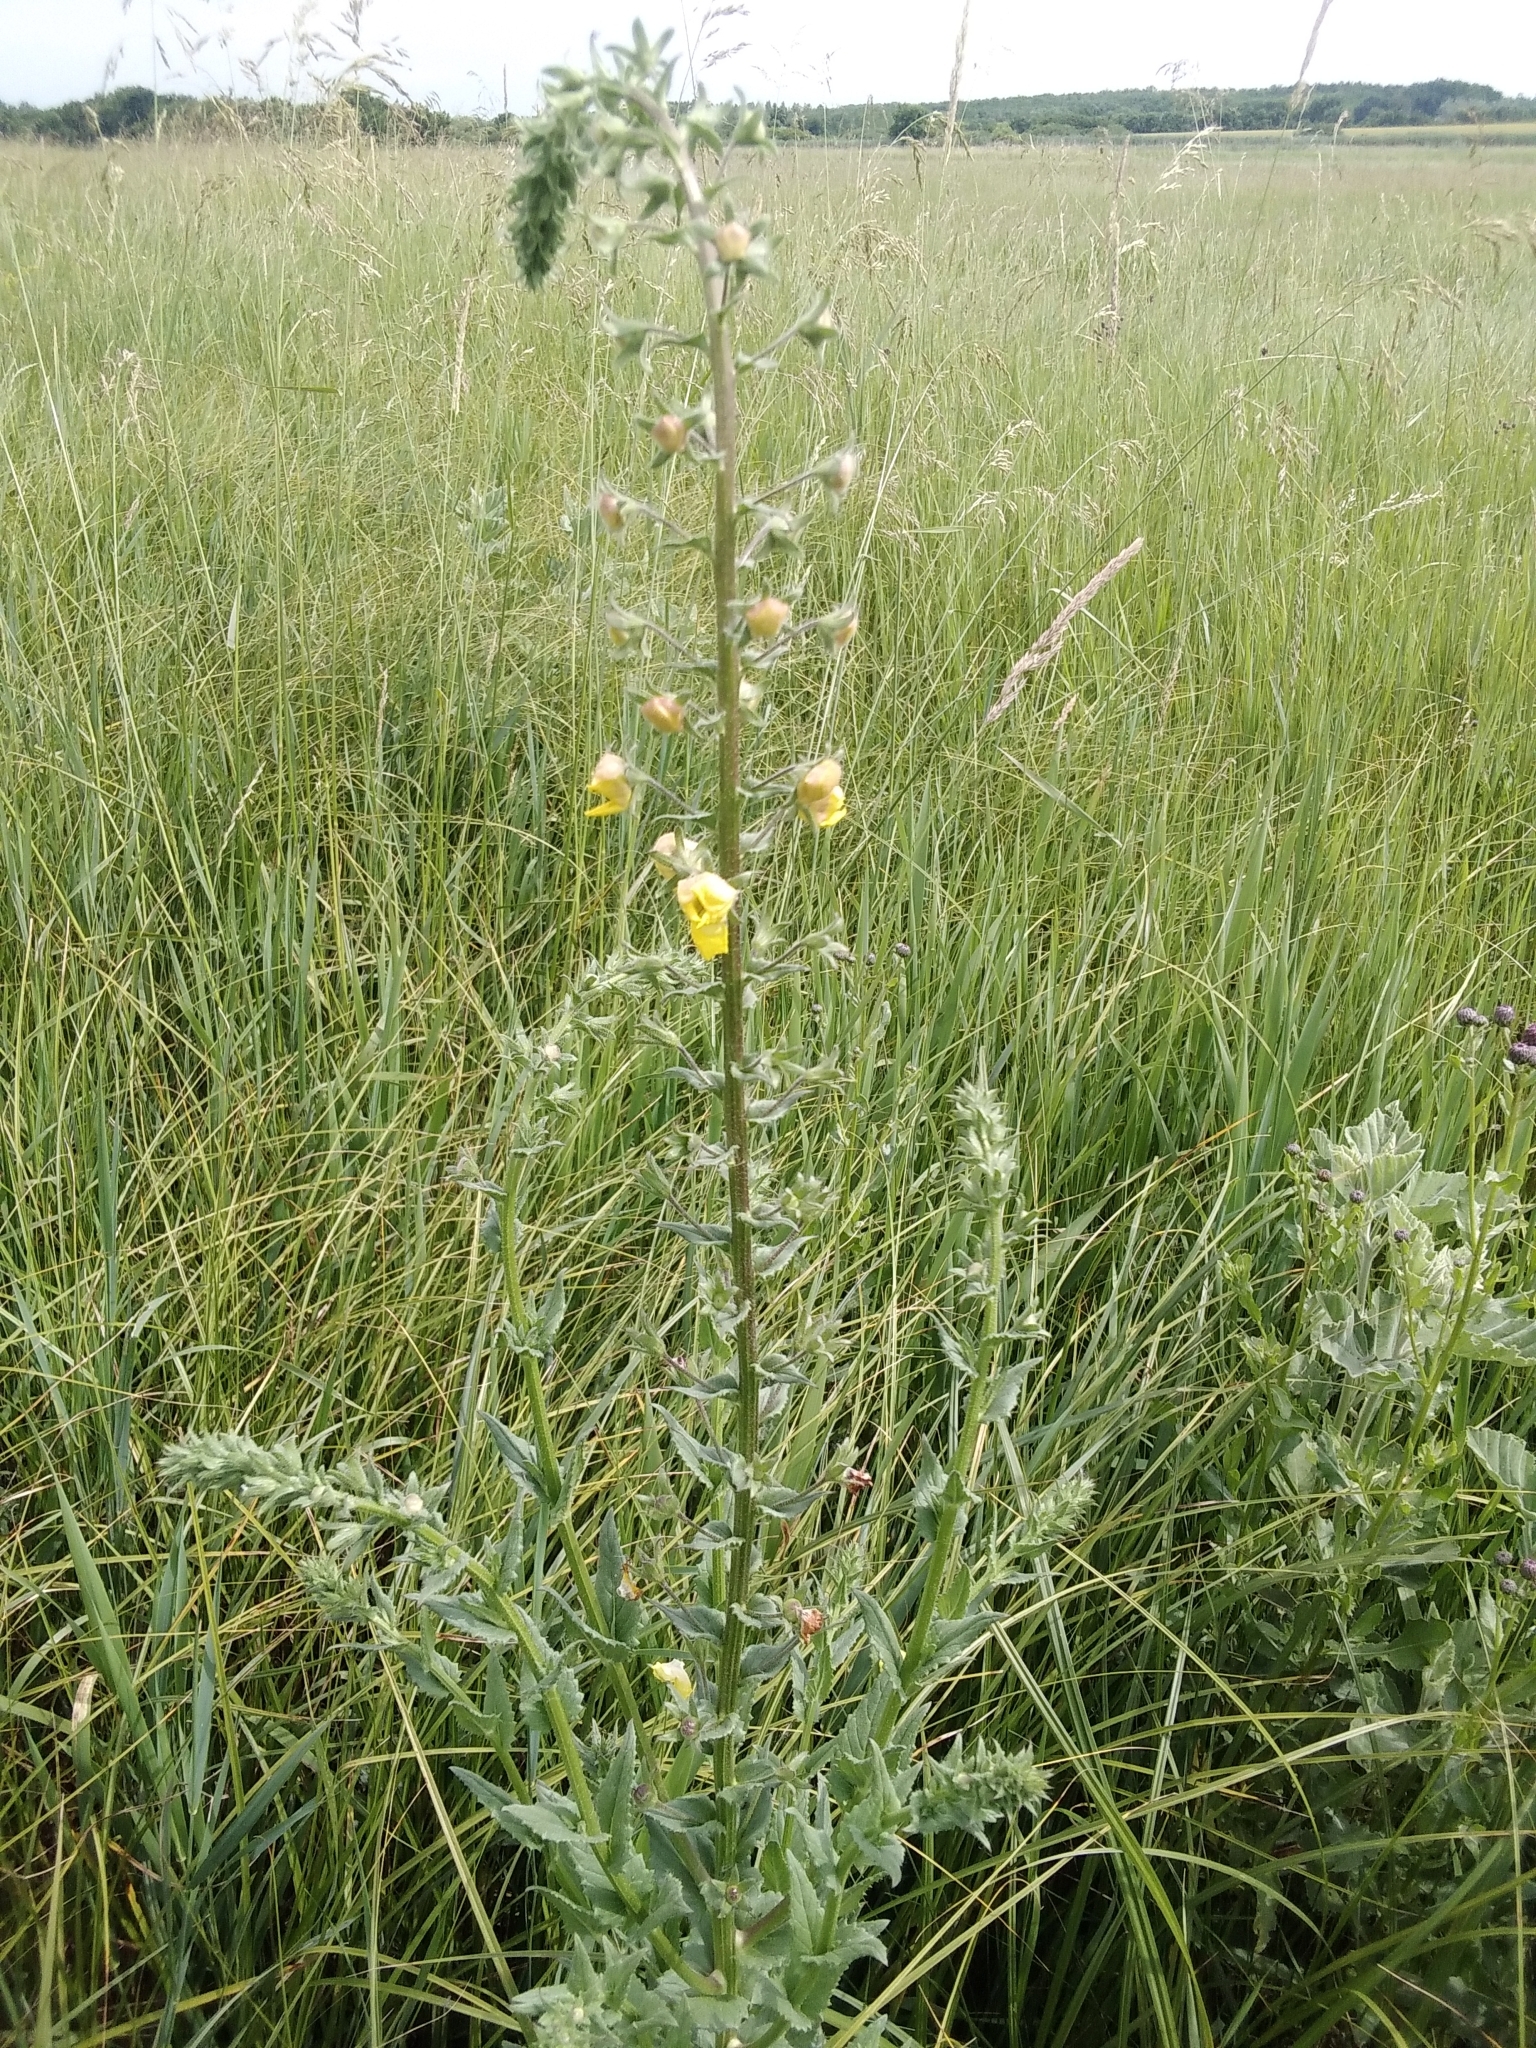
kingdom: Plantae
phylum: Tracheophyta
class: Magnoliopsida
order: Lamiales
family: Scrophulariaceae
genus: Verbascum
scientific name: Verbascum blattaria
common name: Moth mullein
